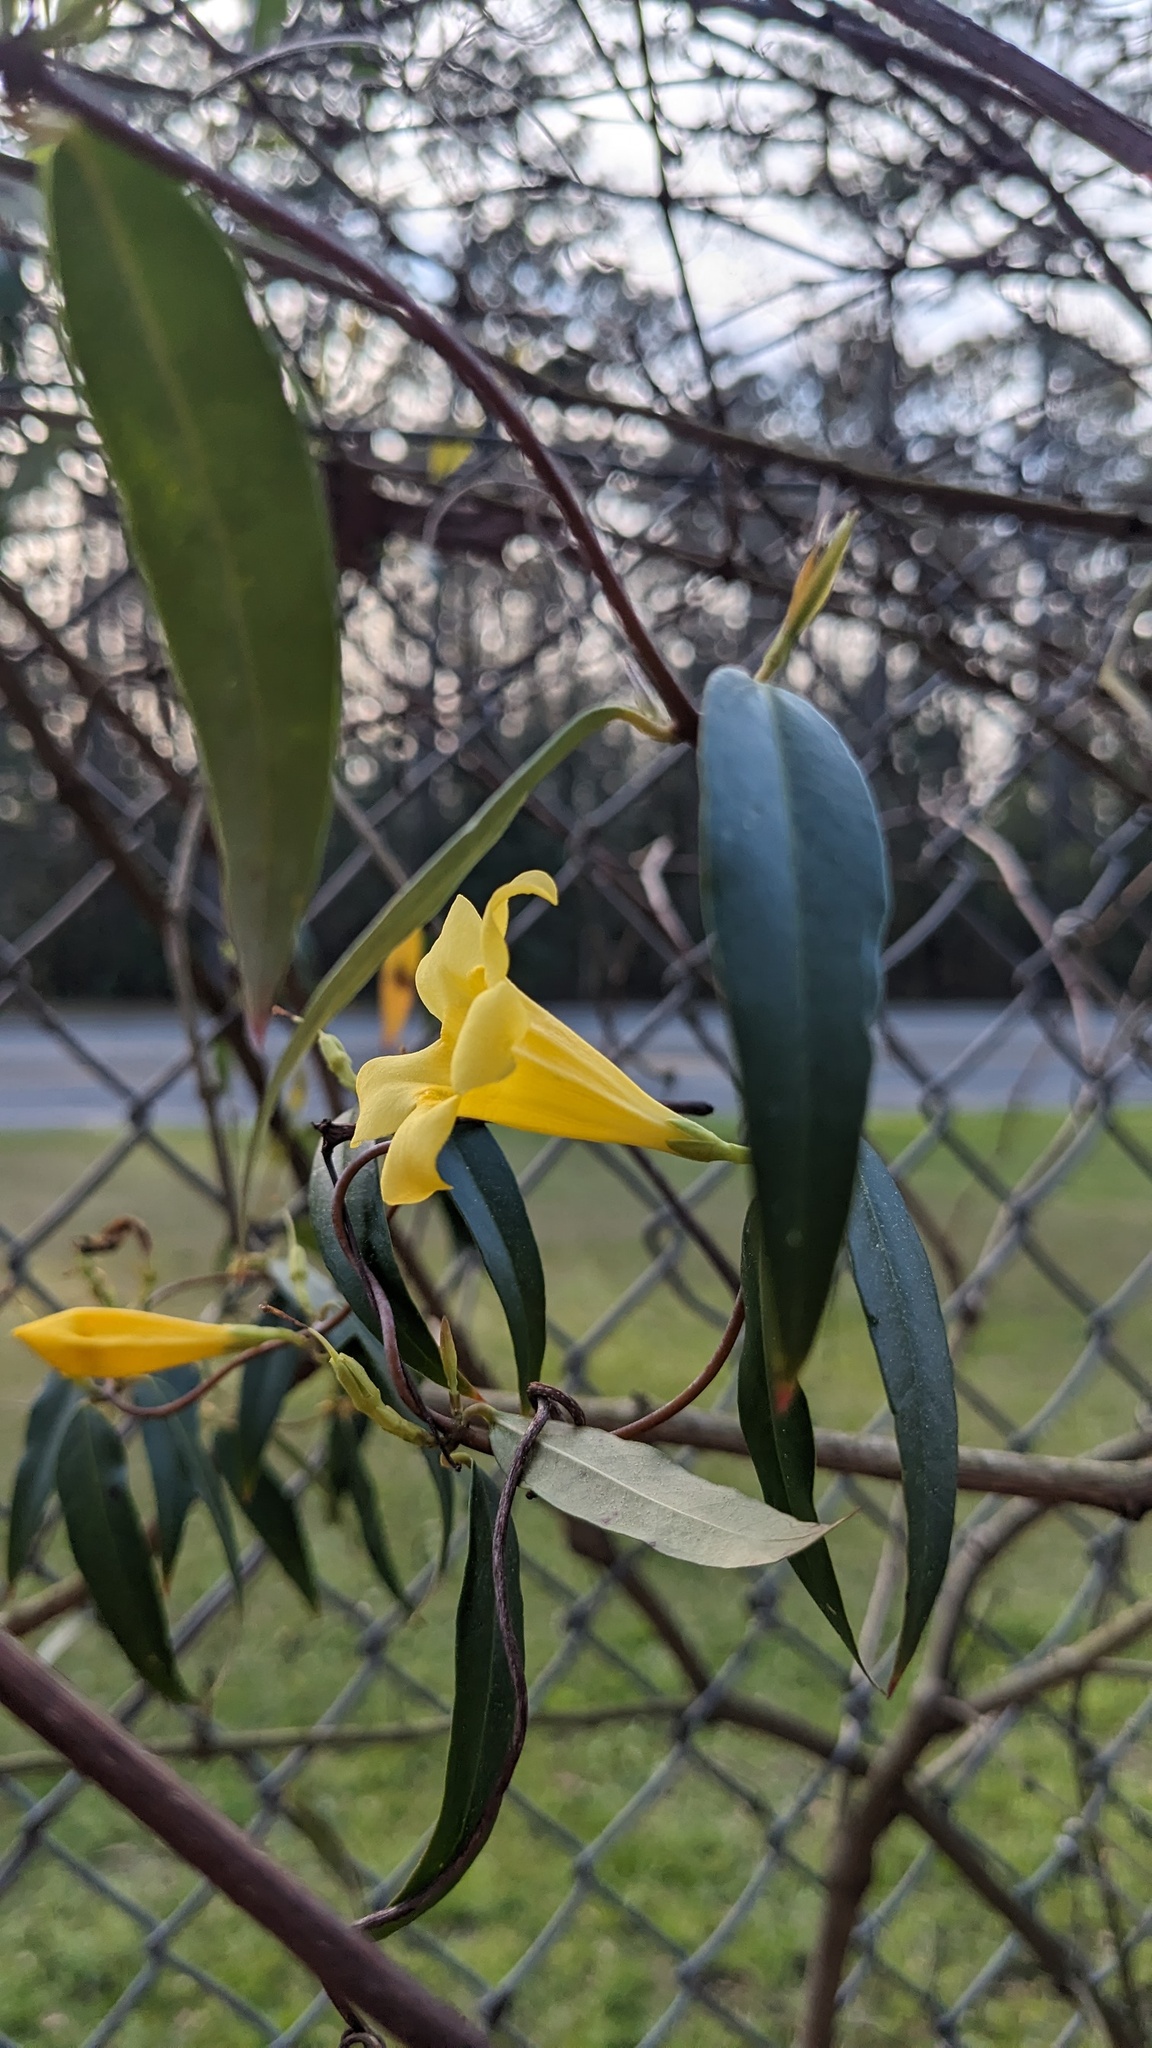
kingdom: Plantae
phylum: Tracheophyta
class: Magnoliopsida
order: Gentianales
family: Gelsemiaceae
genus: Gelsemium
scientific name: Gelsemium sempervirens
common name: Carolina-jasmine
